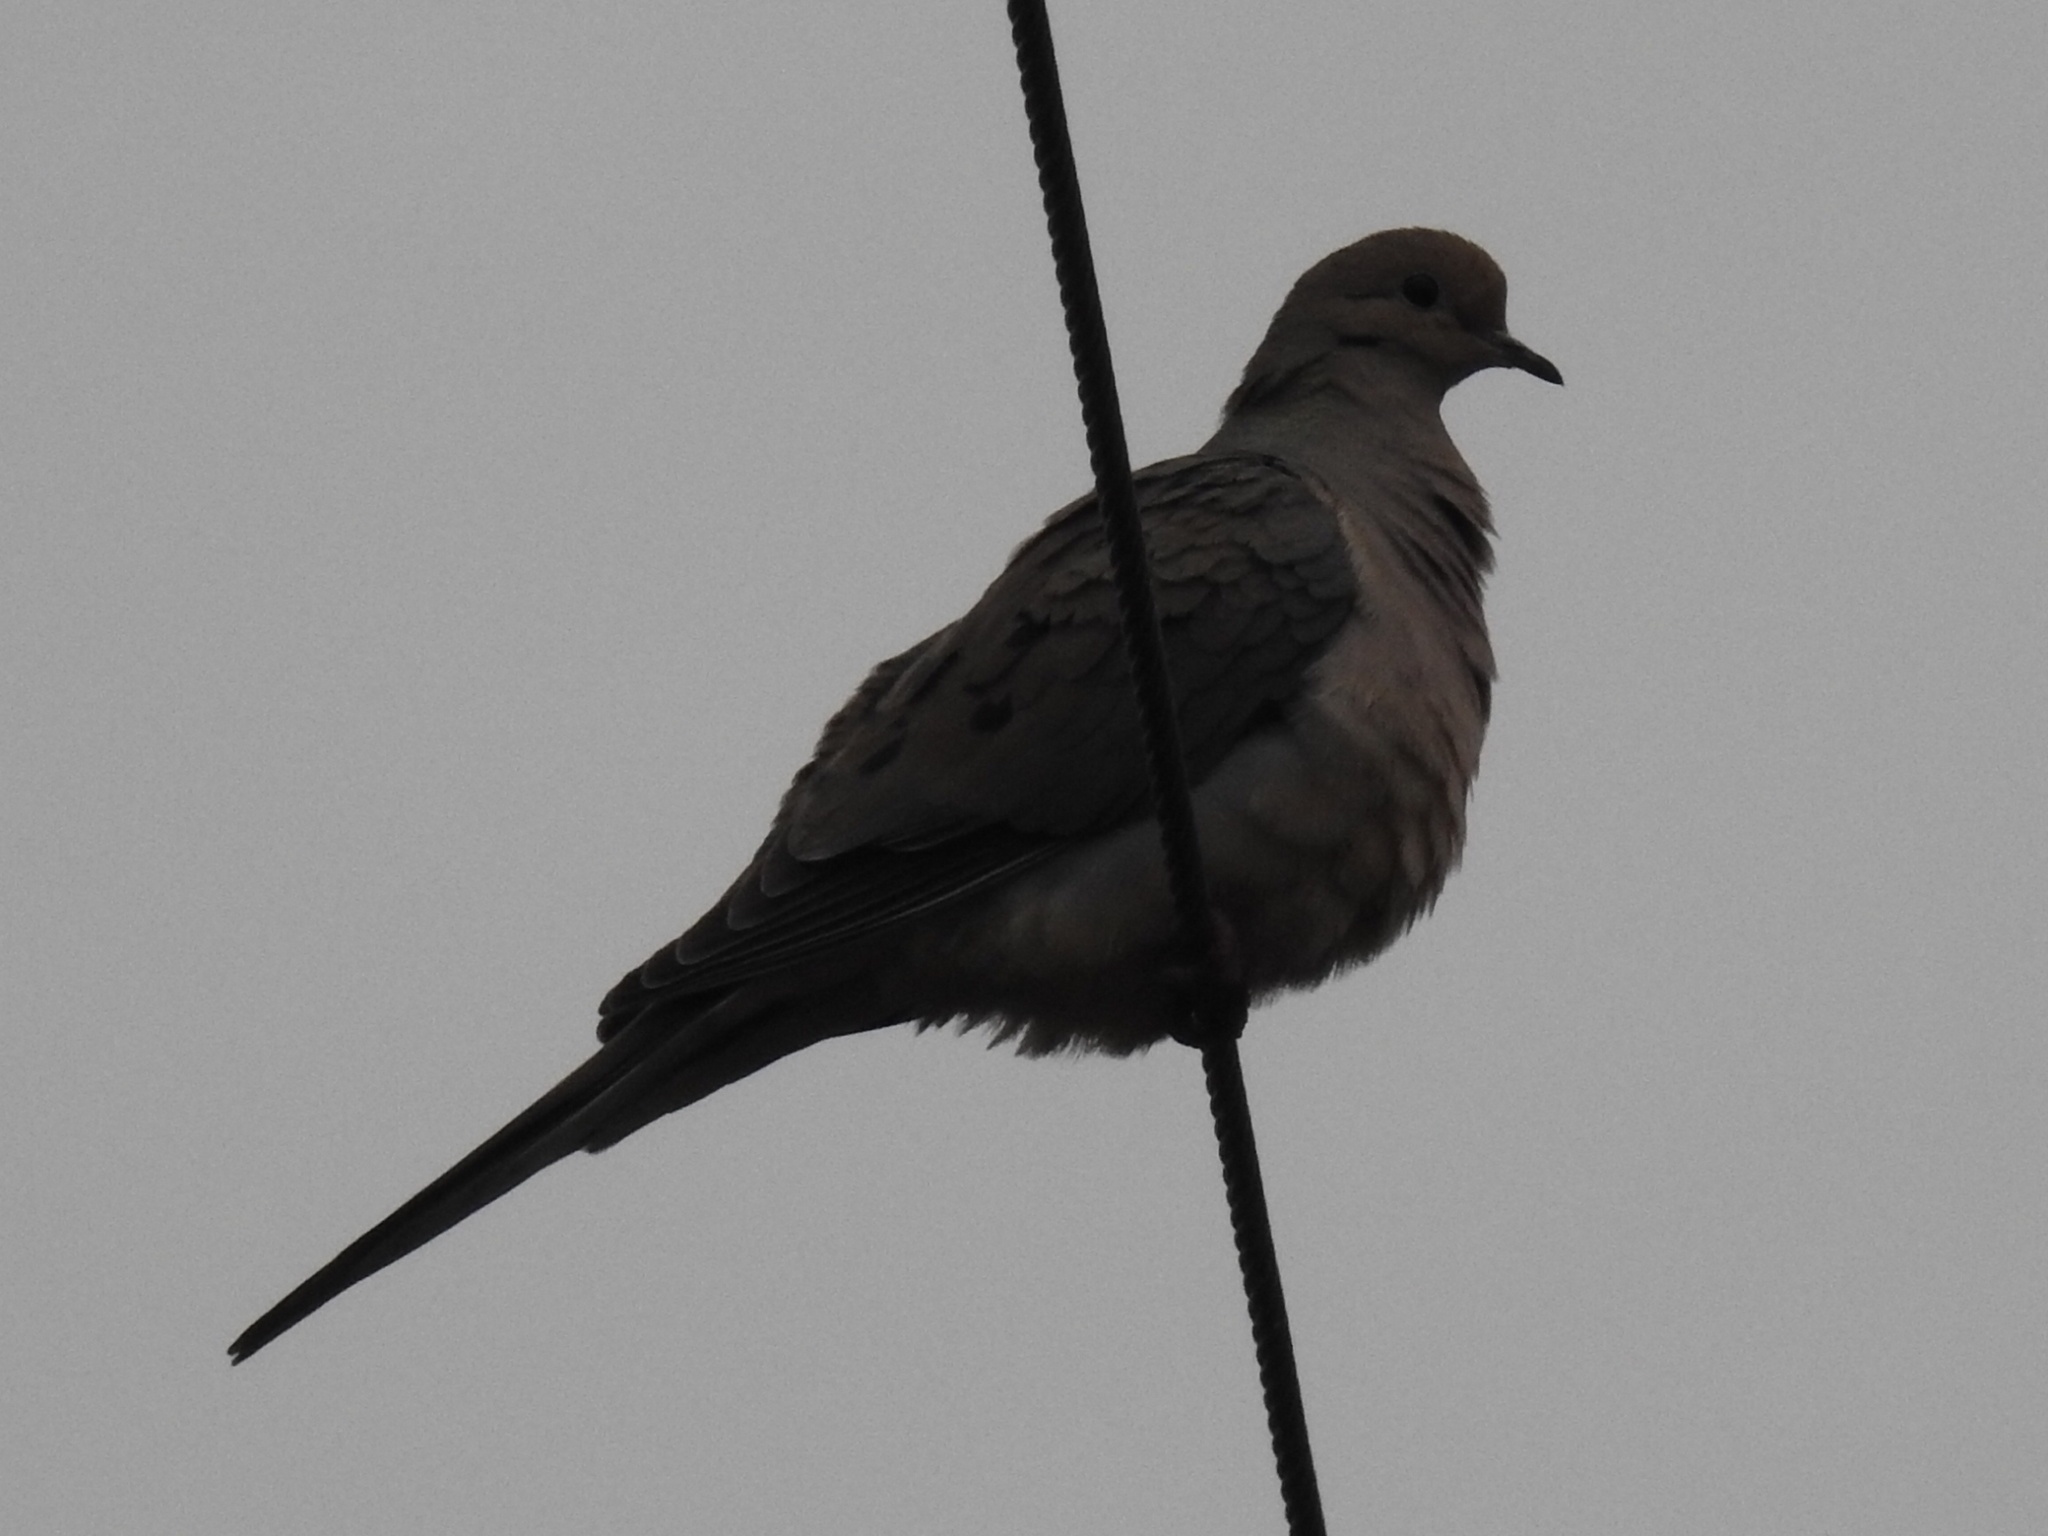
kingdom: Animalia
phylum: Chordata
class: Aves
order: Columbiformes
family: Columbidae
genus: Zenaida
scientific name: Zenaida macroura
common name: Mourning dove
